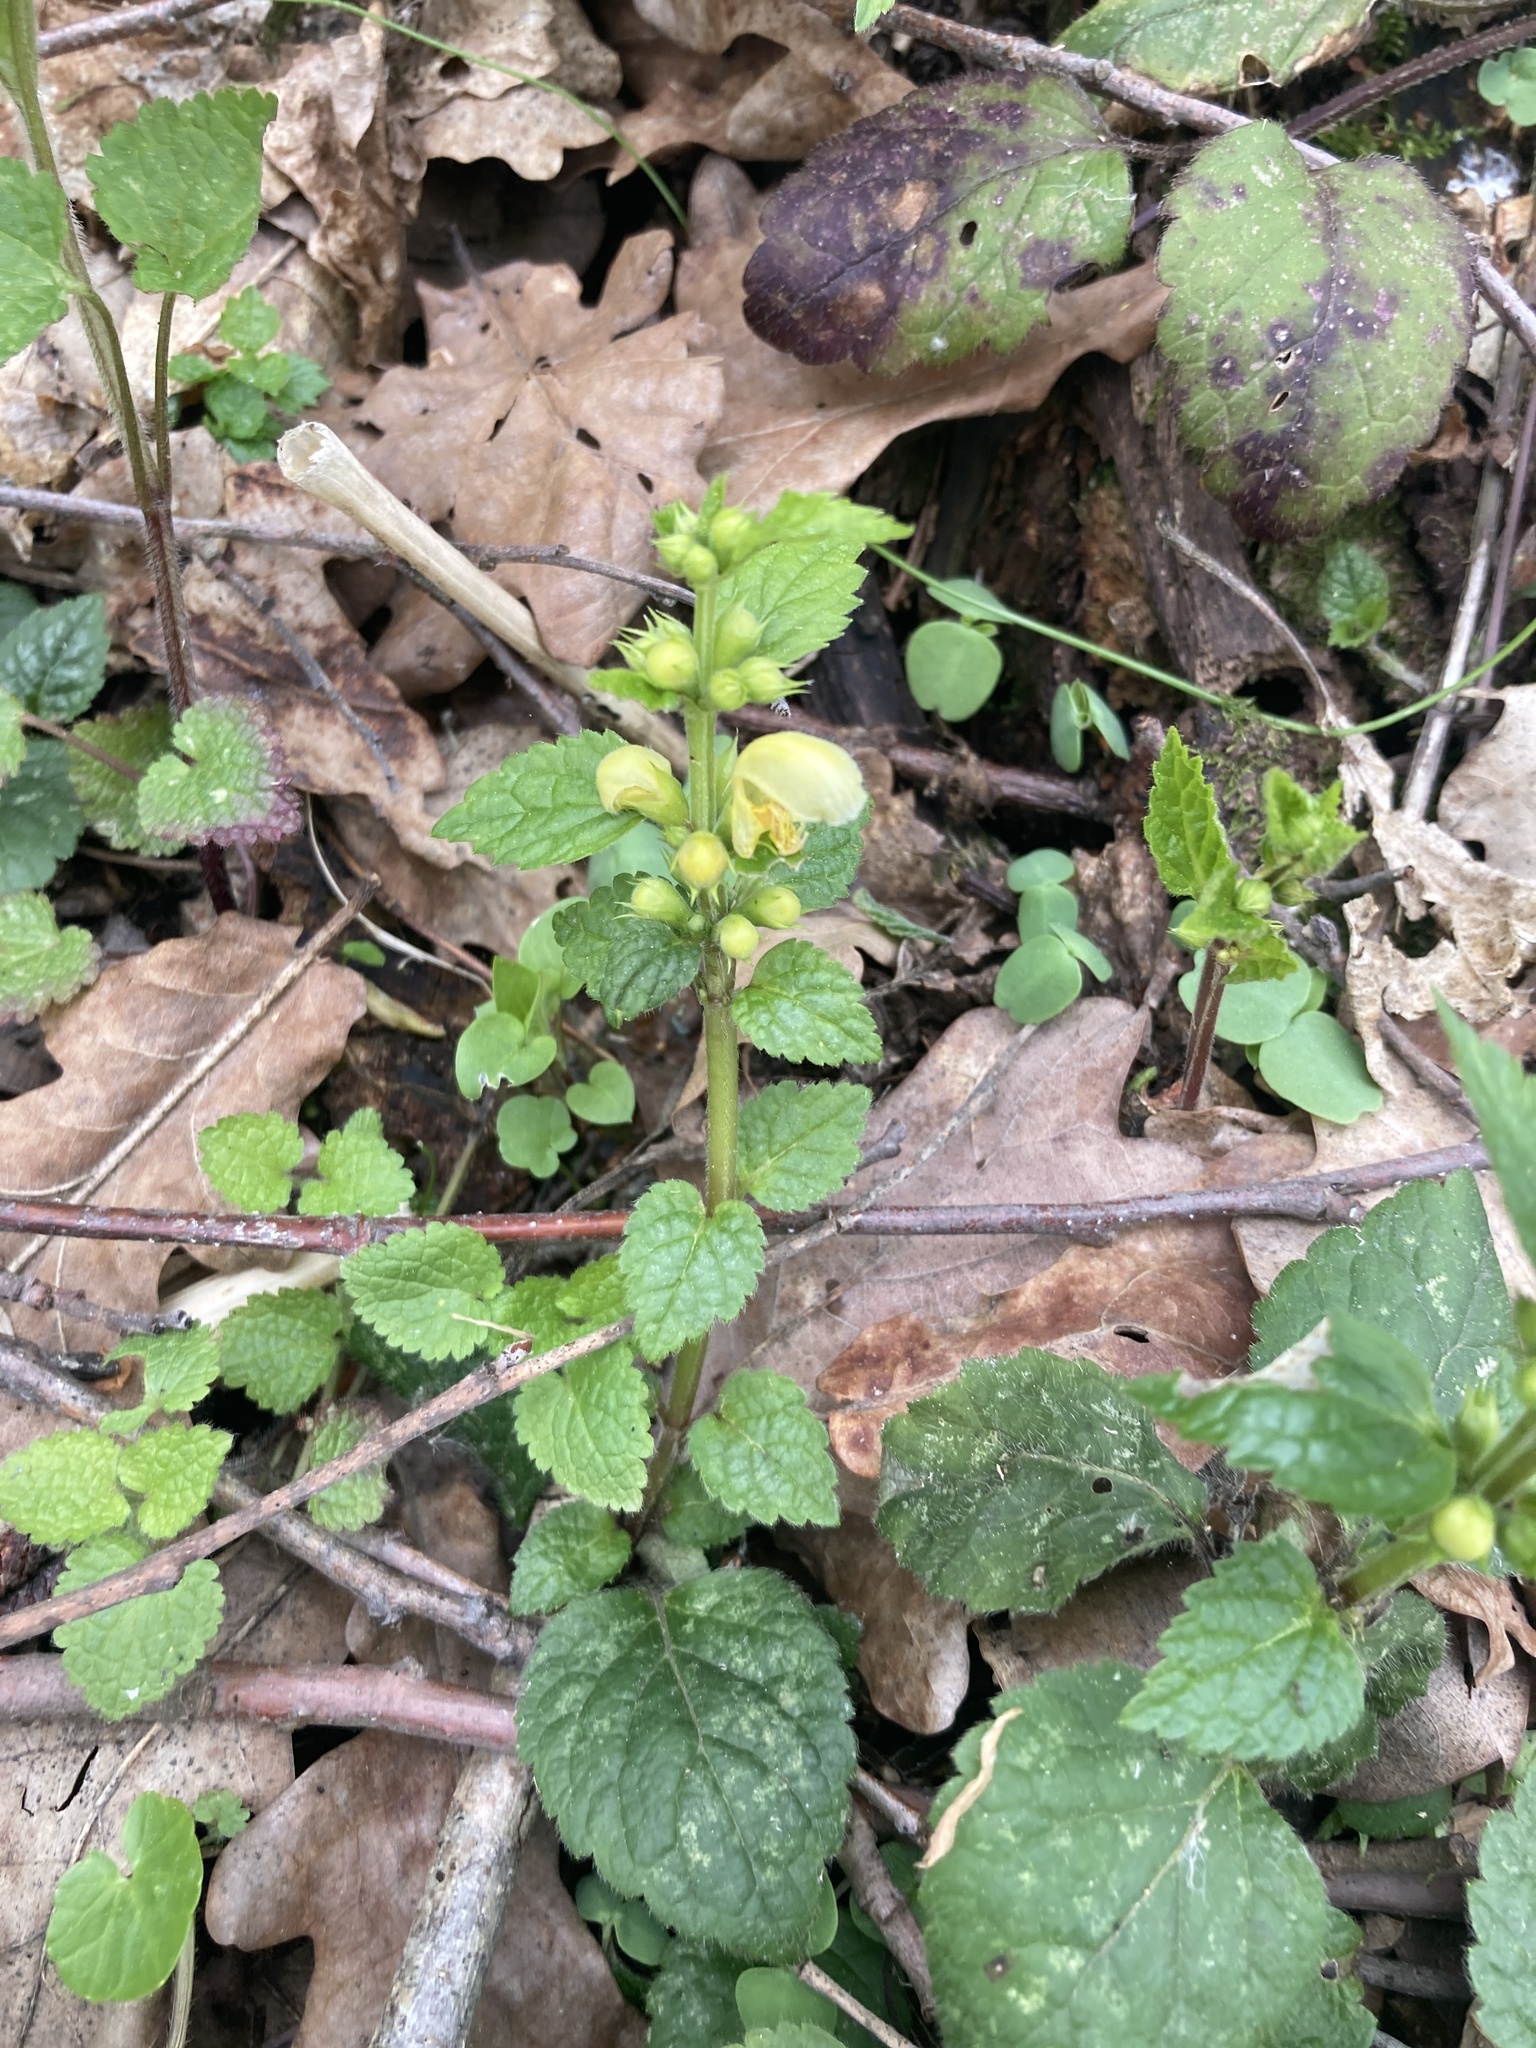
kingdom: Plantae
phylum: Tracheophyta
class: Magnoliopsida
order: Lamiales
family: Lamiaceae
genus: Lamium
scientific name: Lamium galeobdolon
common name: Yellow archangel
